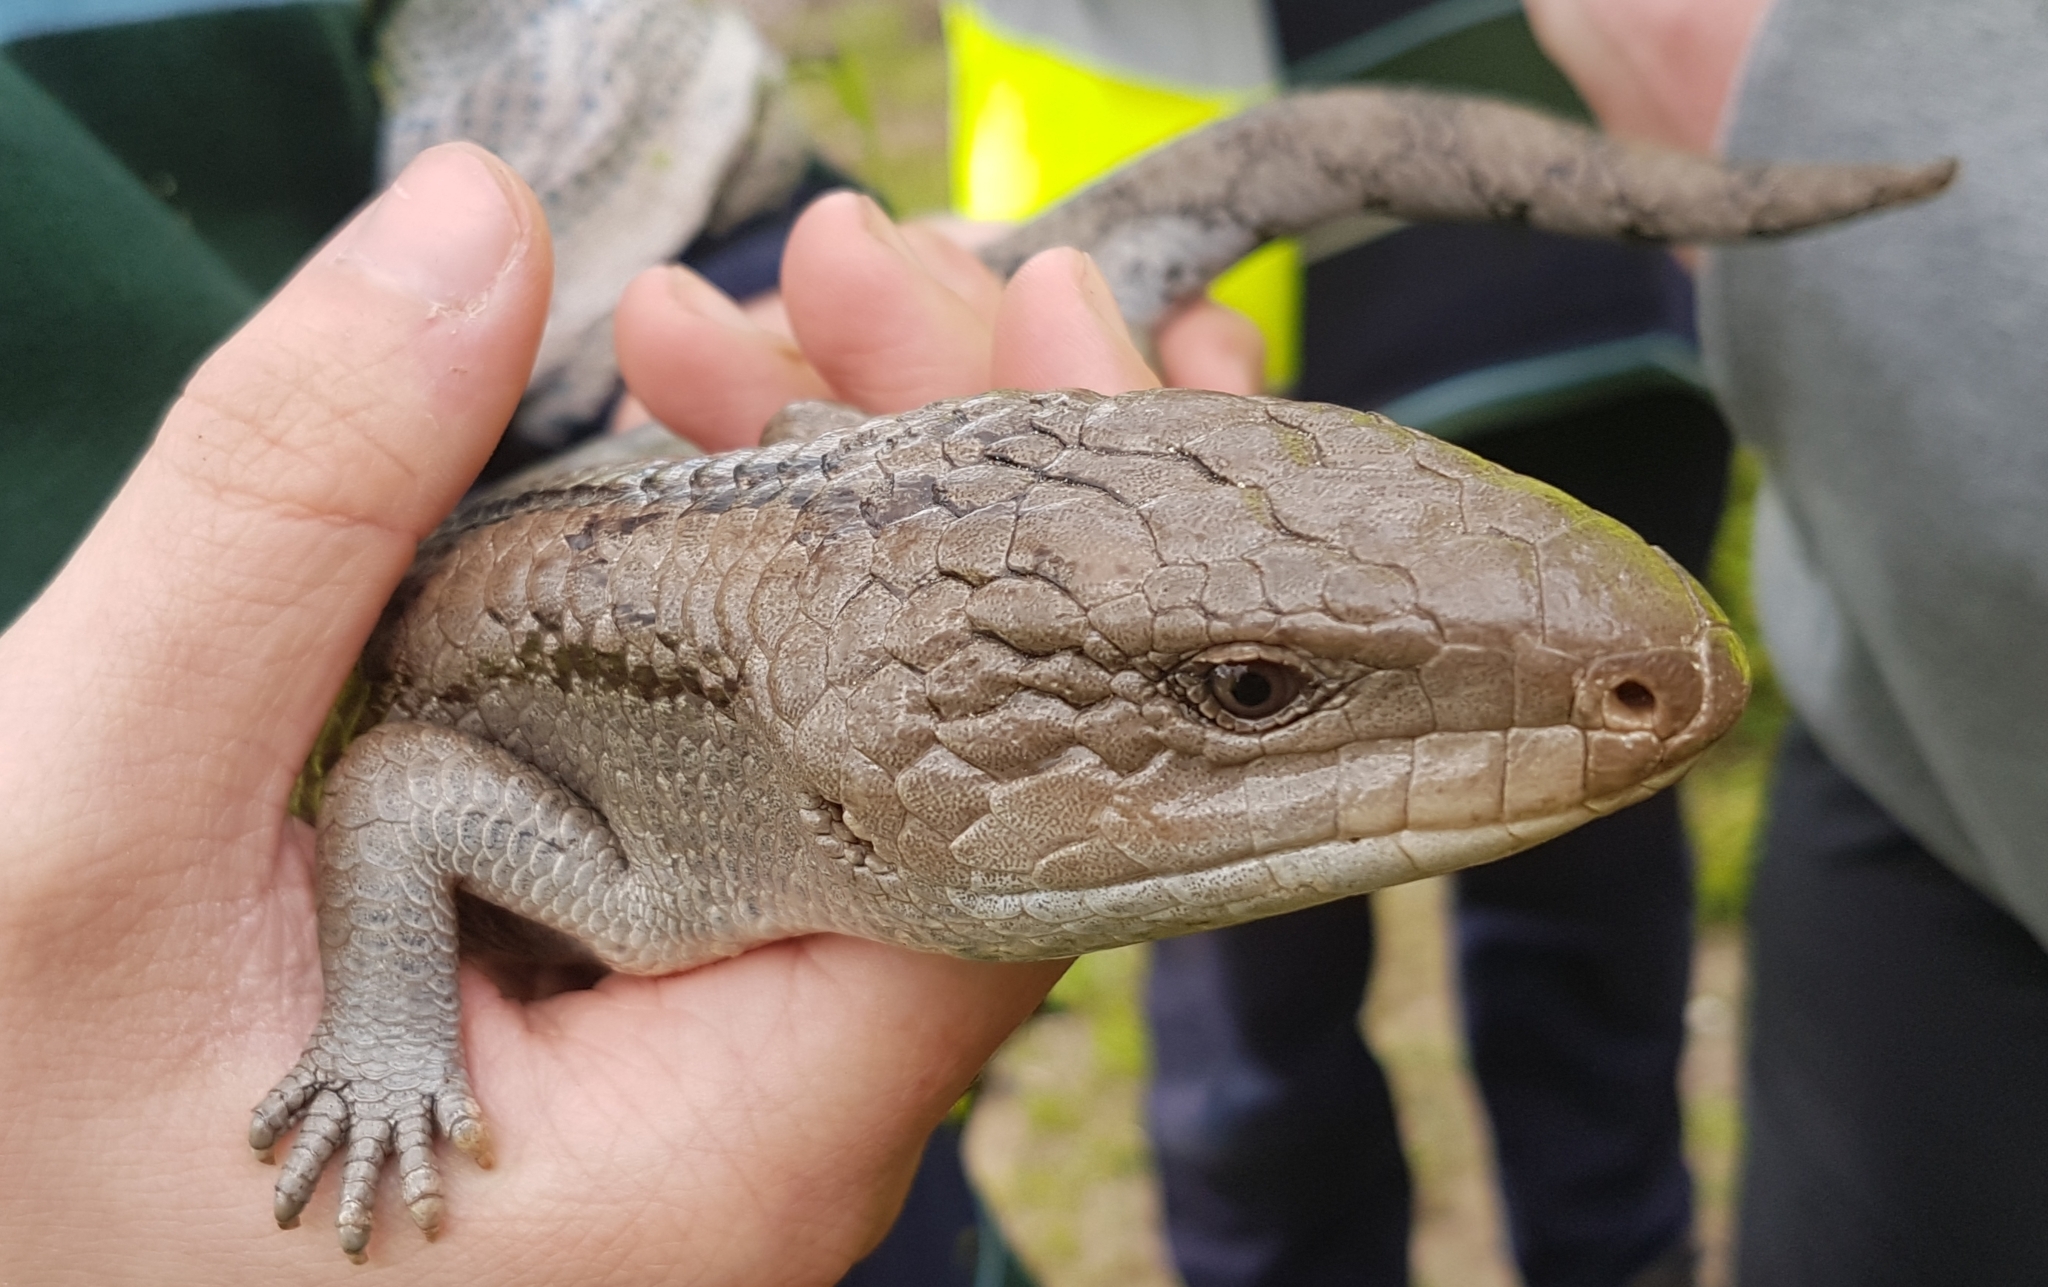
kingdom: Animalia
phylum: Chordata
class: Squamata
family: Scincidae
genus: Tiliqua
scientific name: Tiliqua nigrolutea
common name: Blotched blue-tongued lizard
